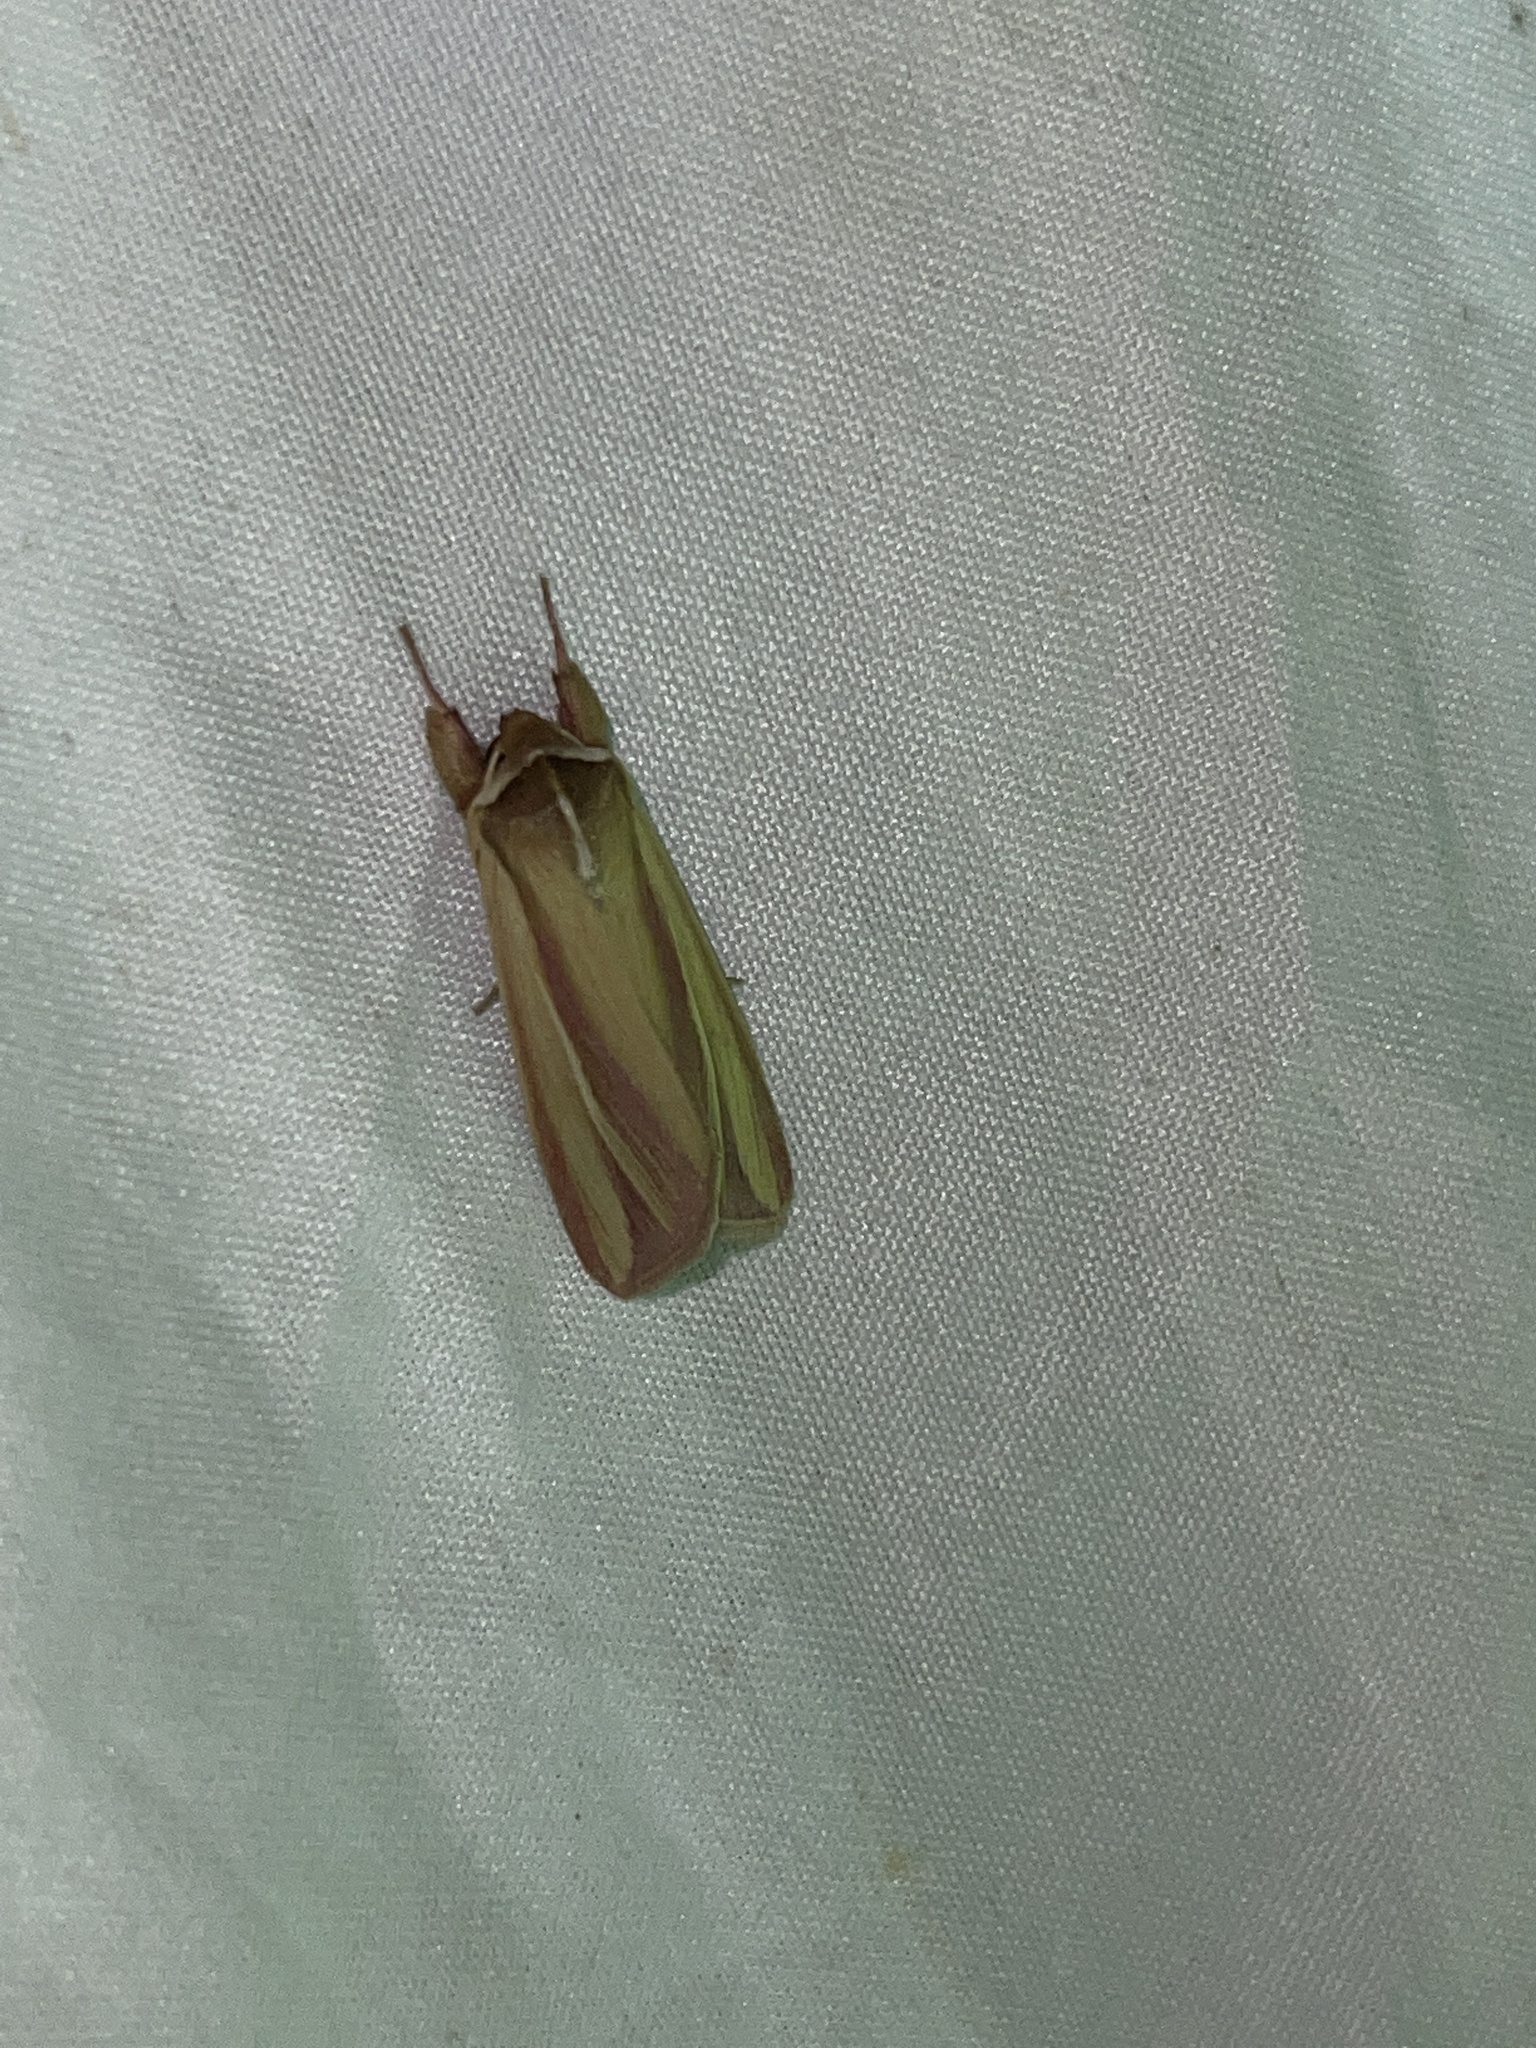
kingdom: Animalia
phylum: Arthropoda
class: Insecta
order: Lepidoptera
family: Noctuidae
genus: Dargida
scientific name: Dargida rubripennis
